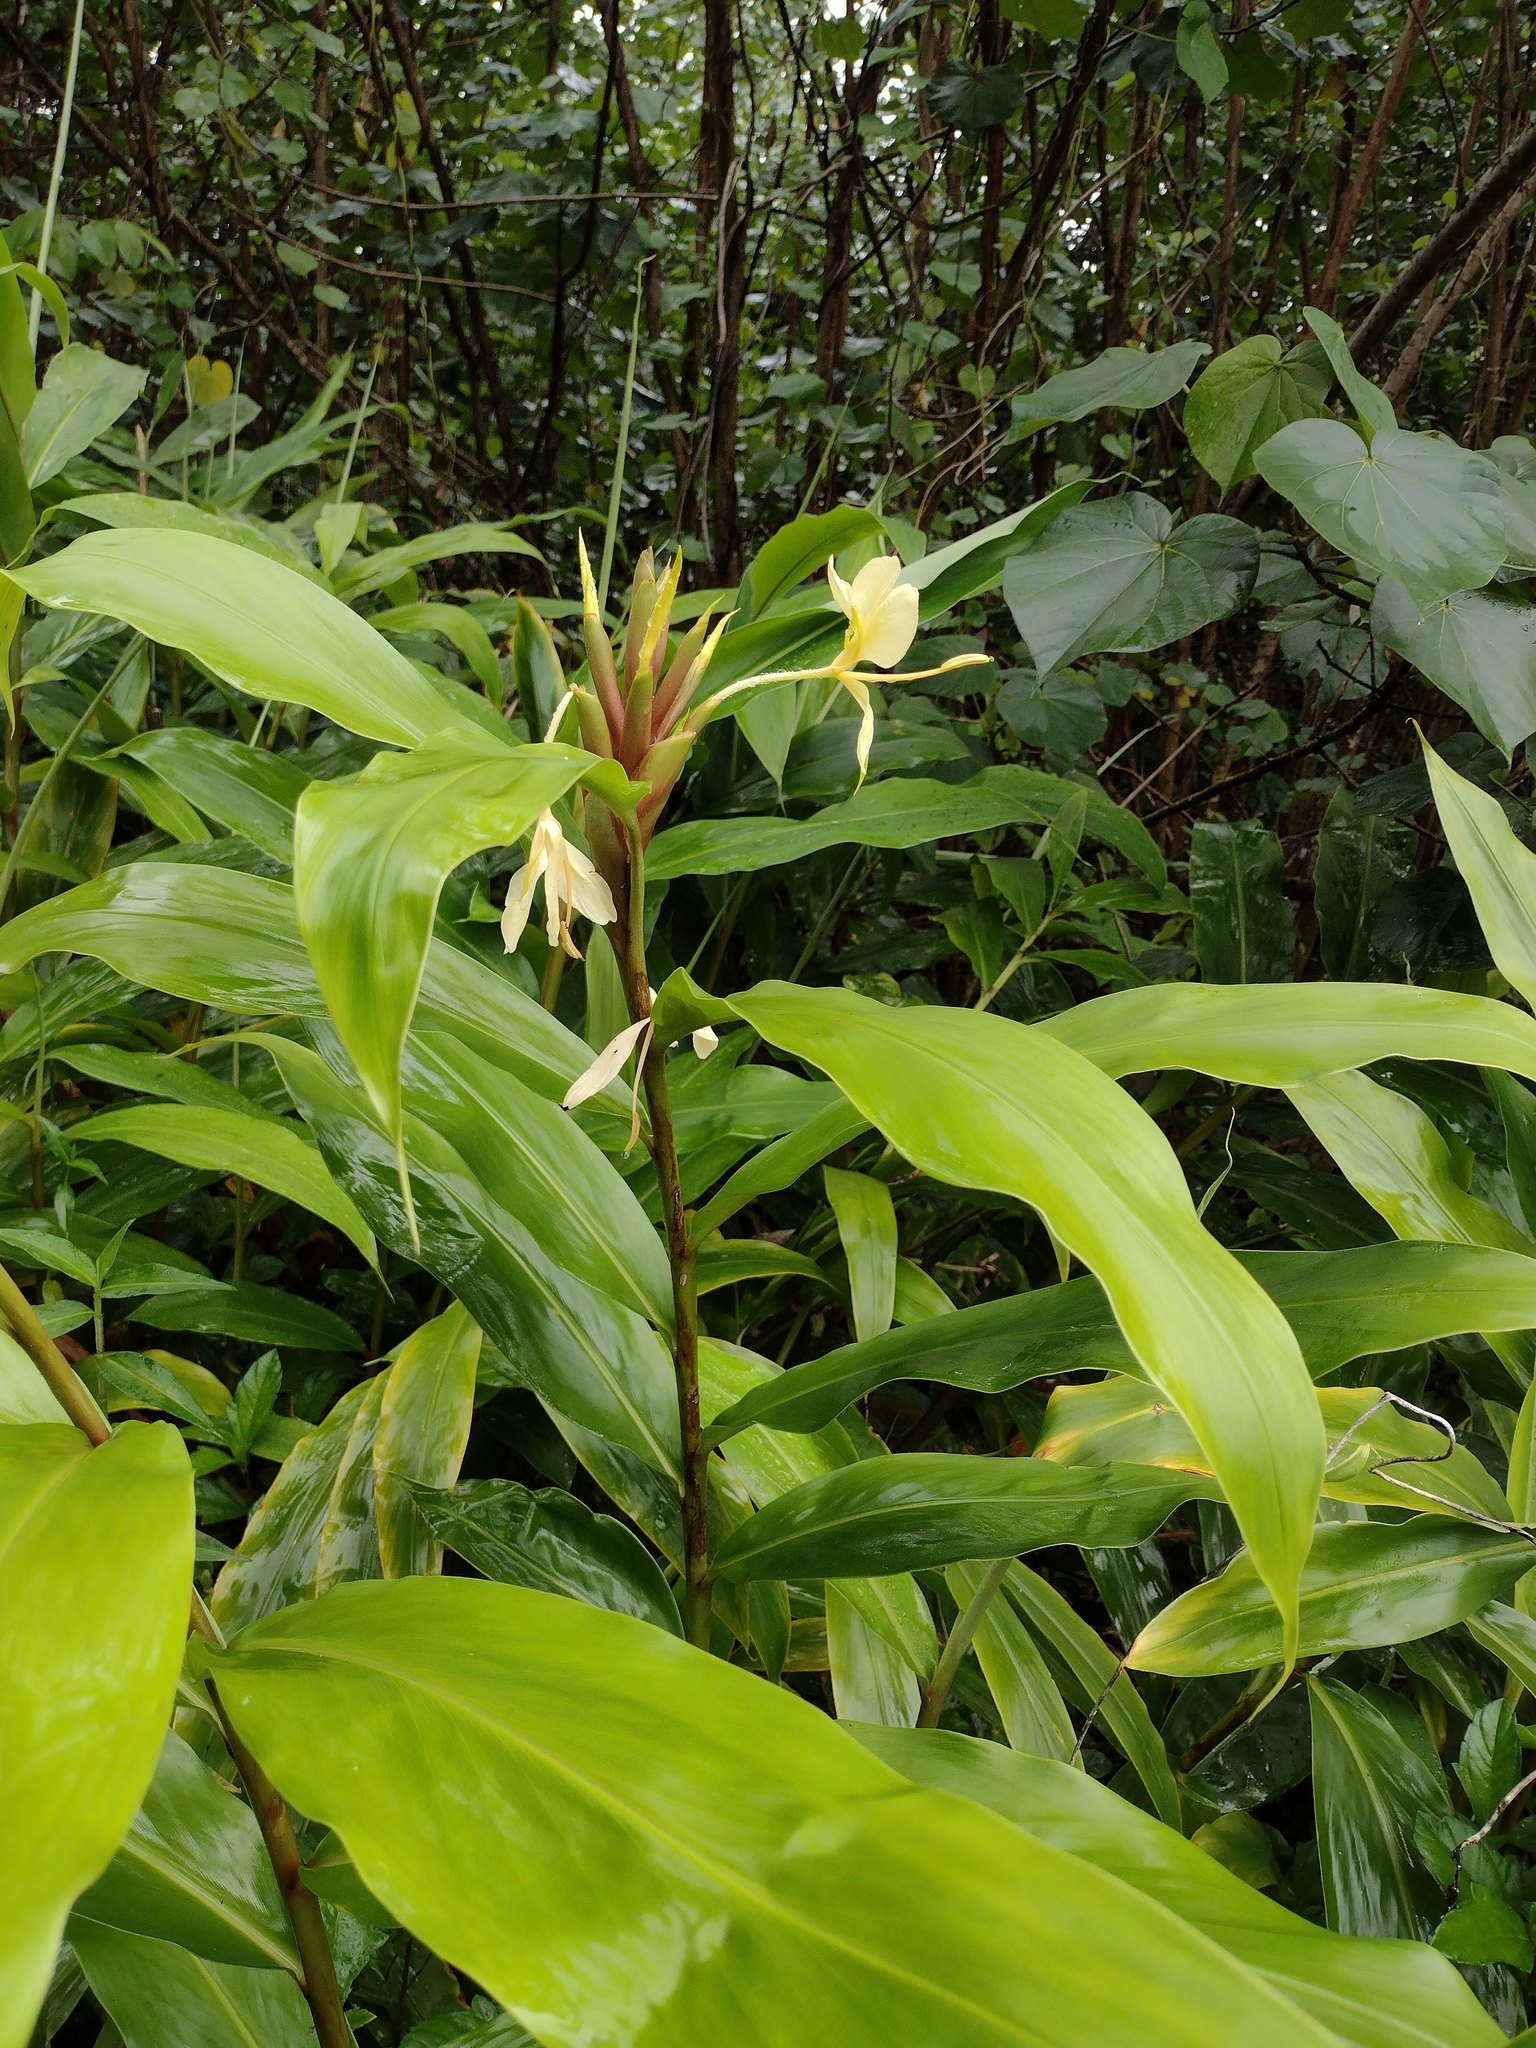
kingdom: Plantae
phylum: Tracheophyta
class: Liliopsida
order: Zingiberales
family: Zingiberaceae
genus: Hedychium
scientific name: Hedychium flavescens
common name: Yellow ginger
